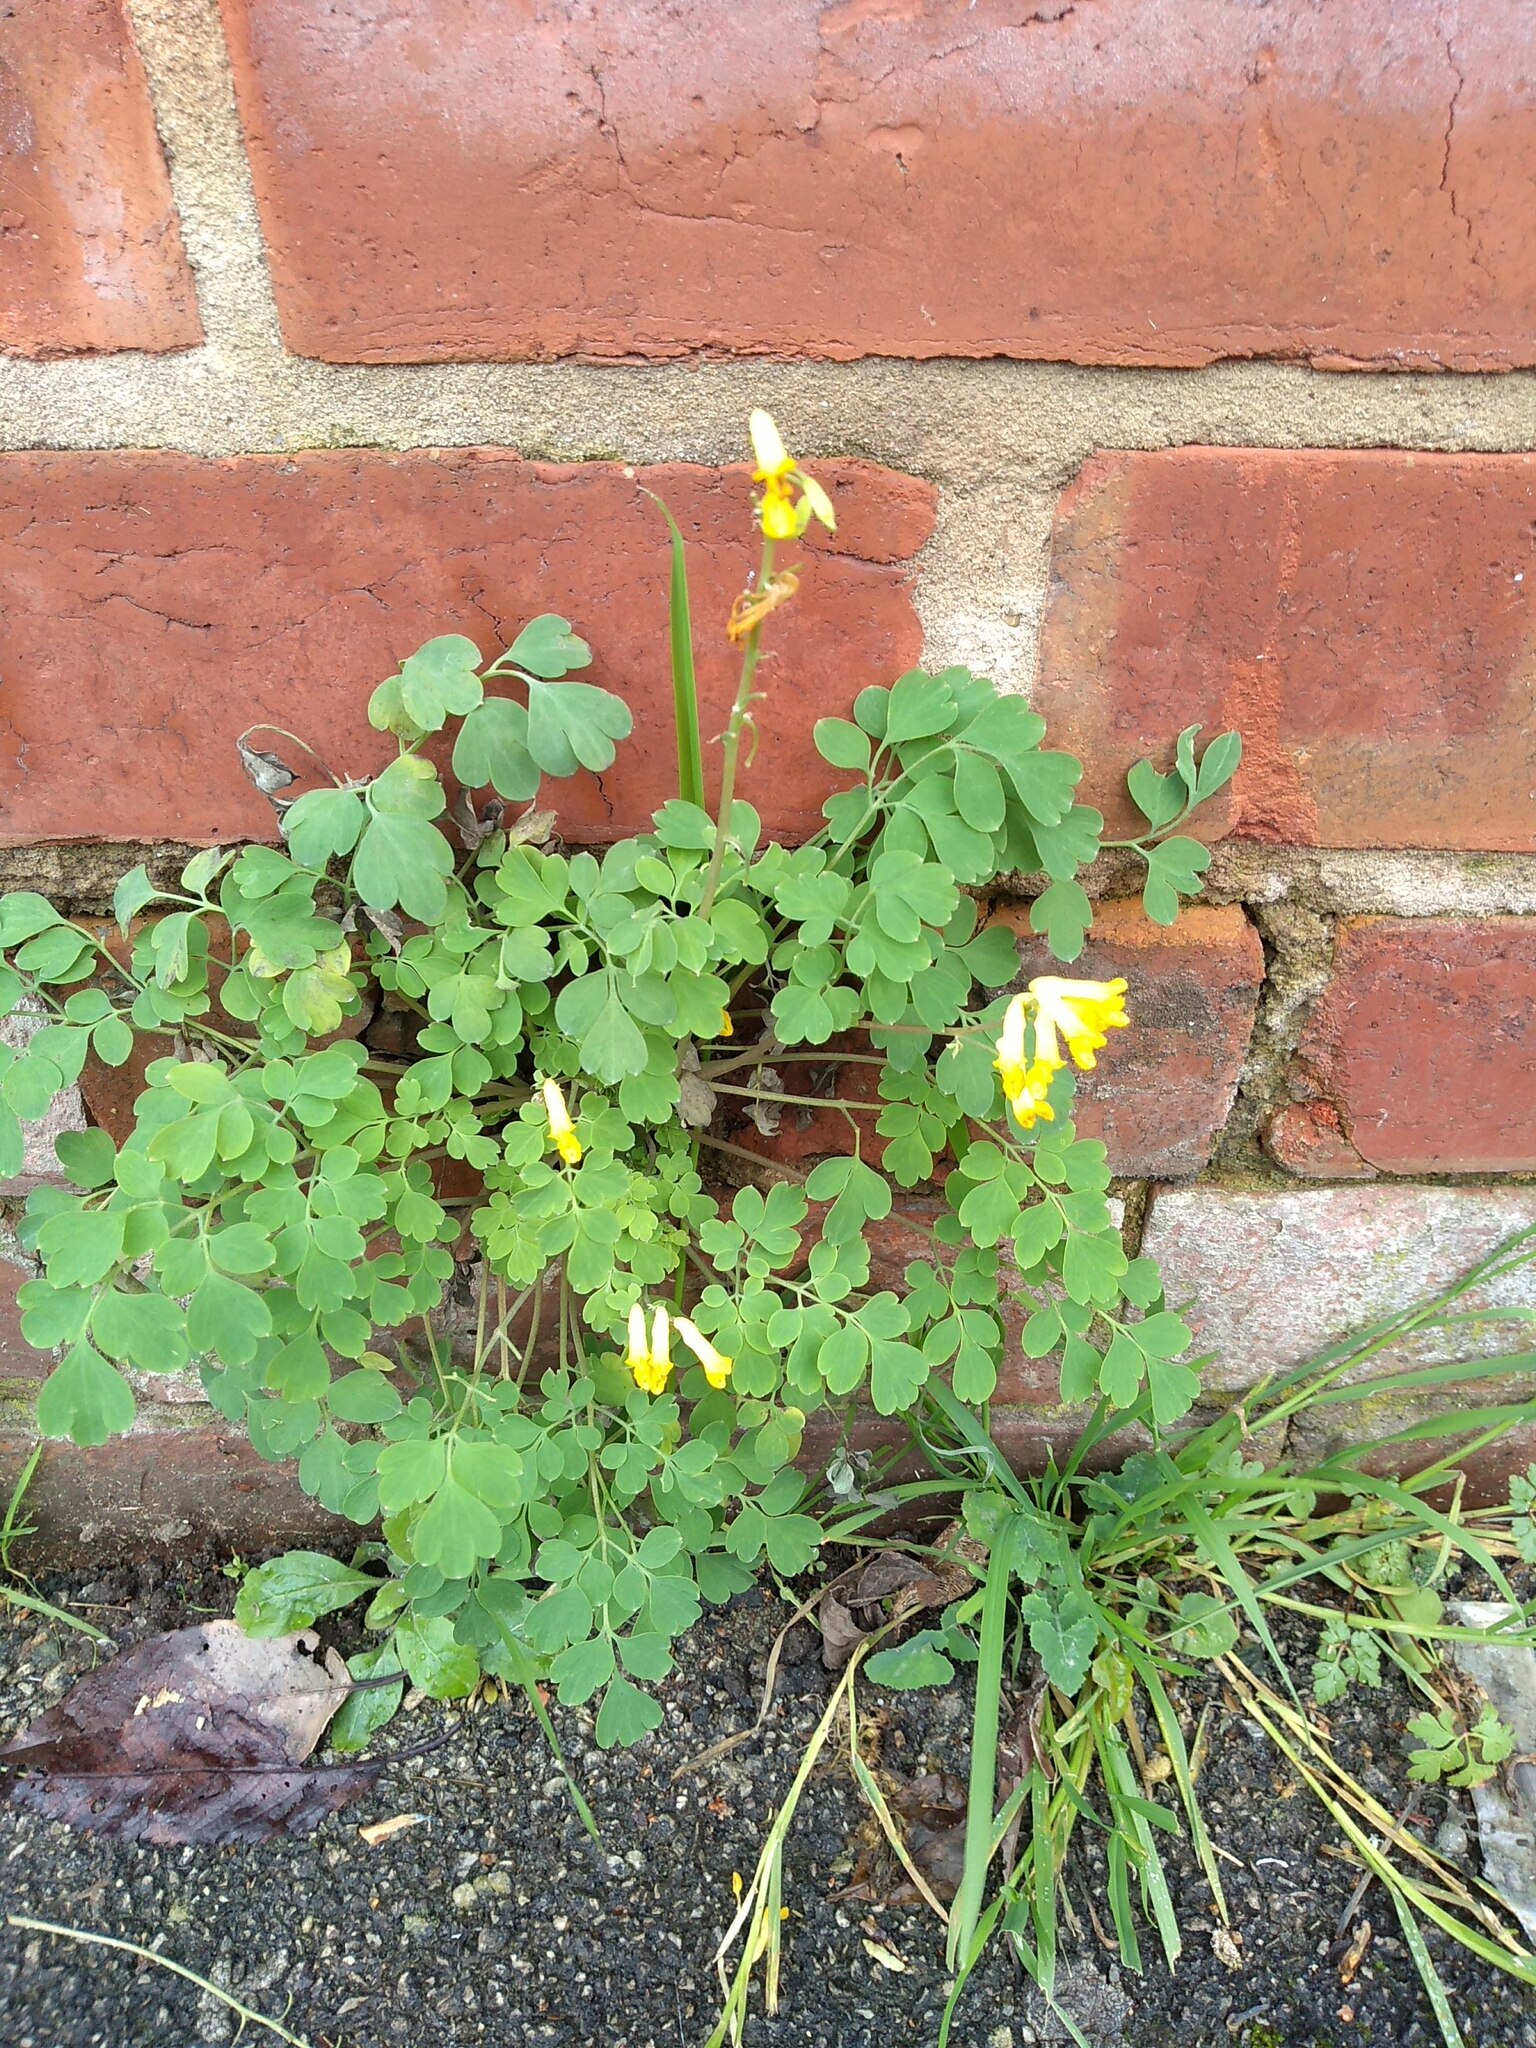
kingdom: Plantae
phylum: Tracheophyta
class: Magnoliopsida
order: Ranunculales
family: Papaveraceae
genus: Pseudofumaria
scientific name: Pseudofumaria lutea
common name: Yellow corydalis
